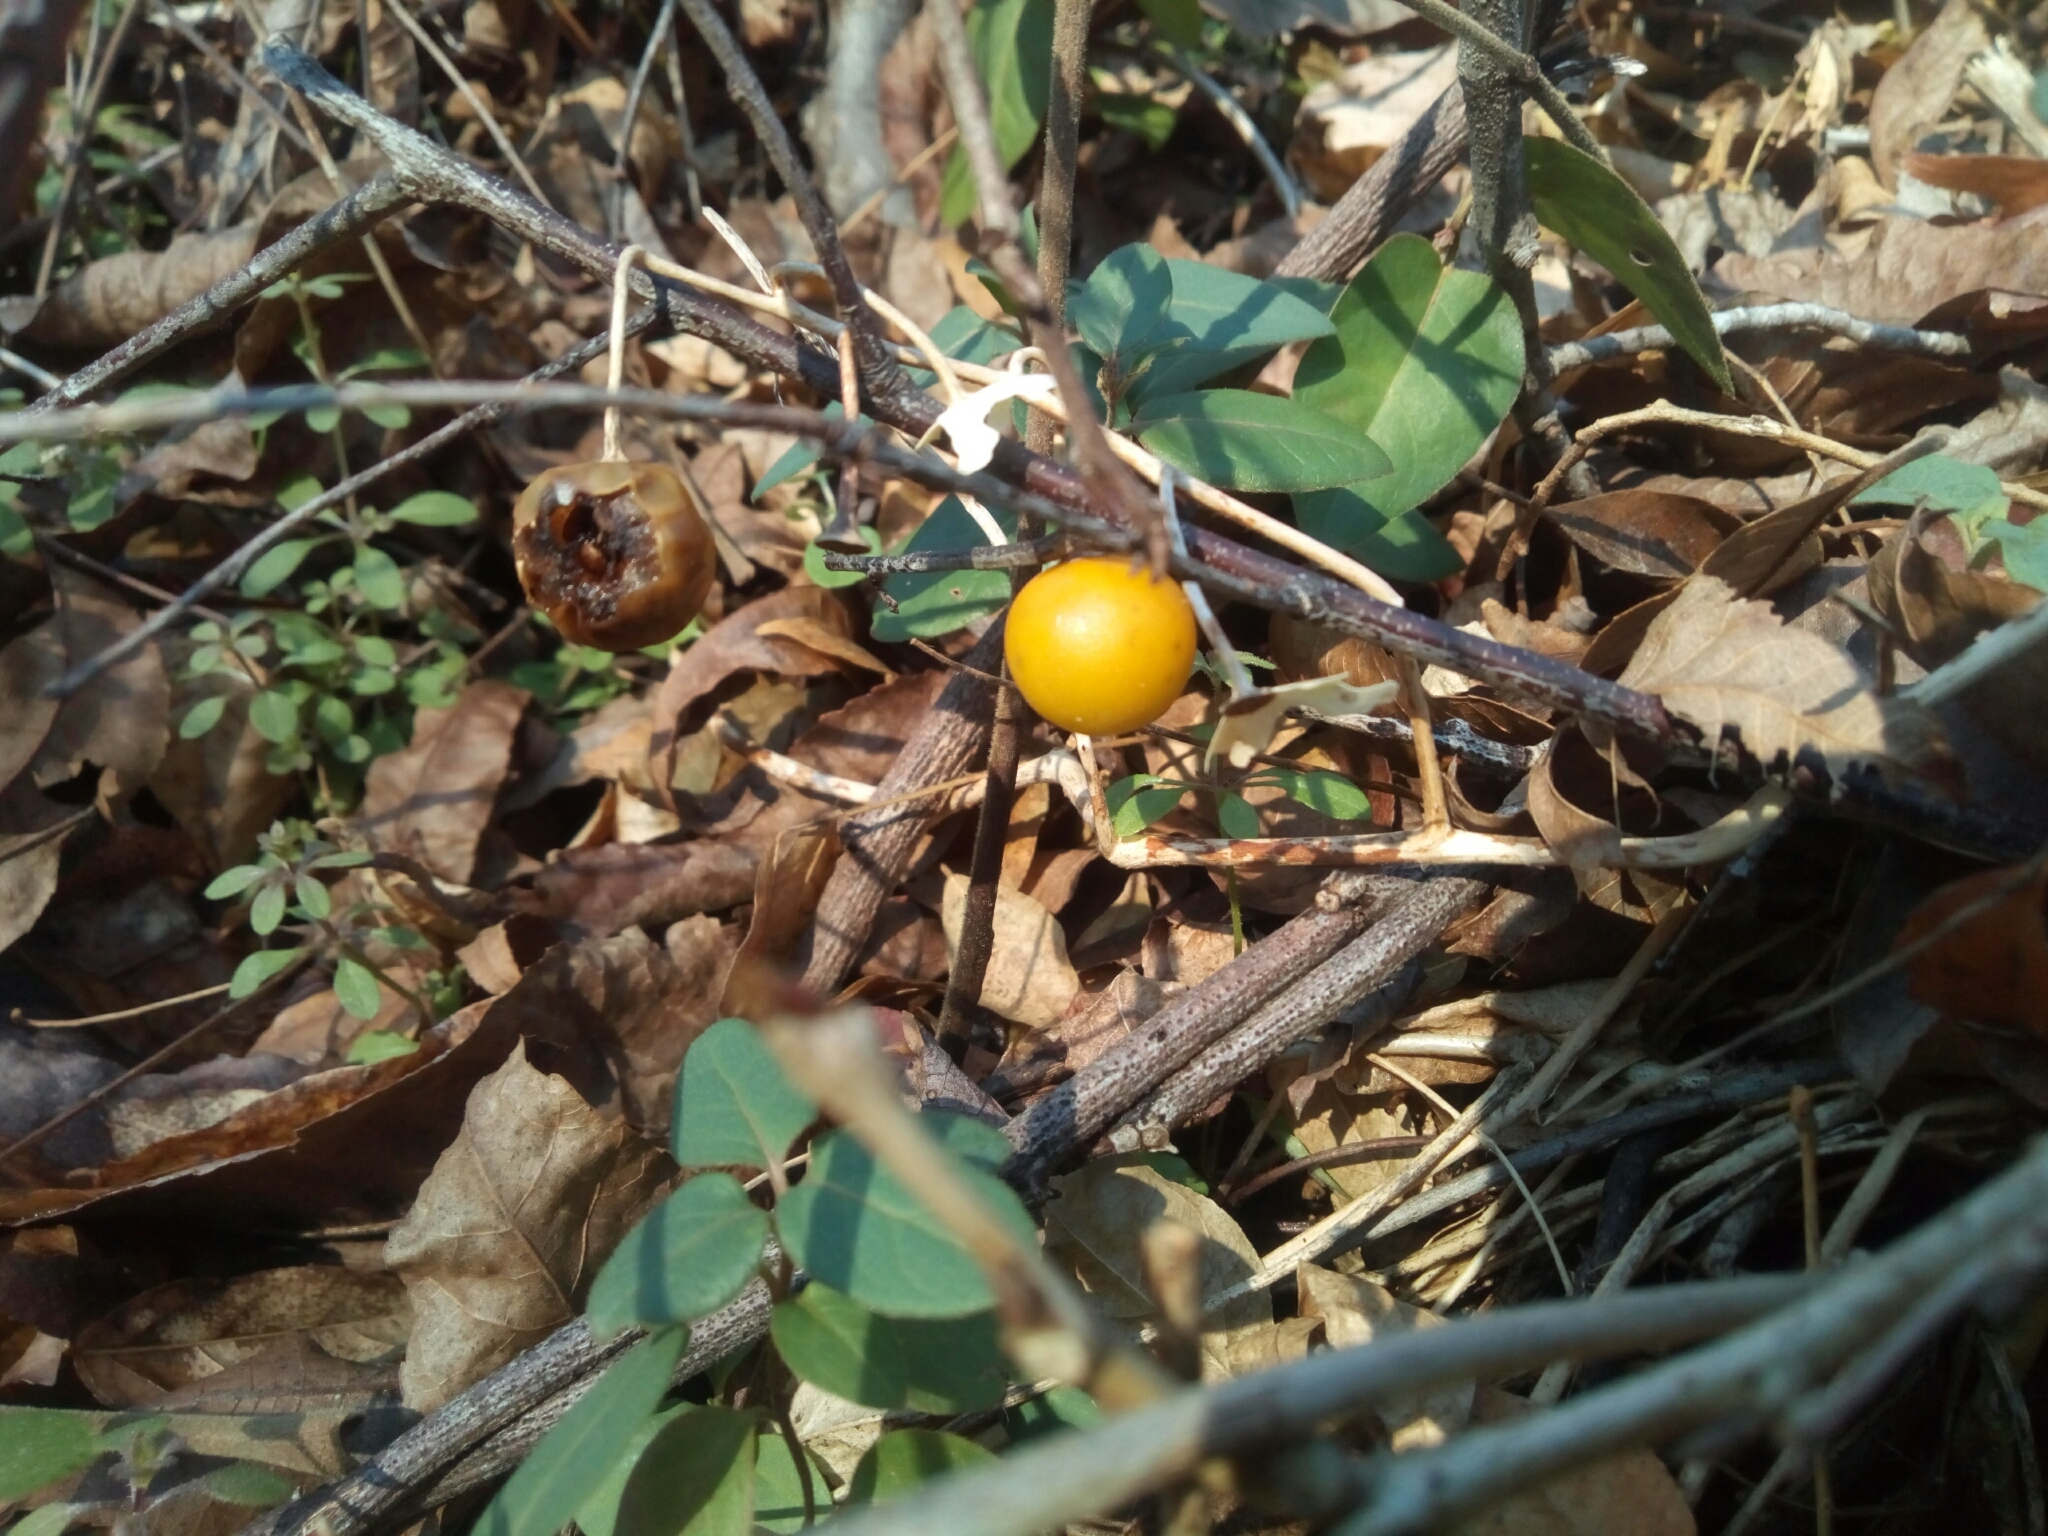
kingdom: Plantae
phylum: Tracheophyta
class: Magnoliopsida
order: Solanales
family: Solanaceae
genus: Solanum
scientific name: Solanum carolinense
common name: Horse-nettle
